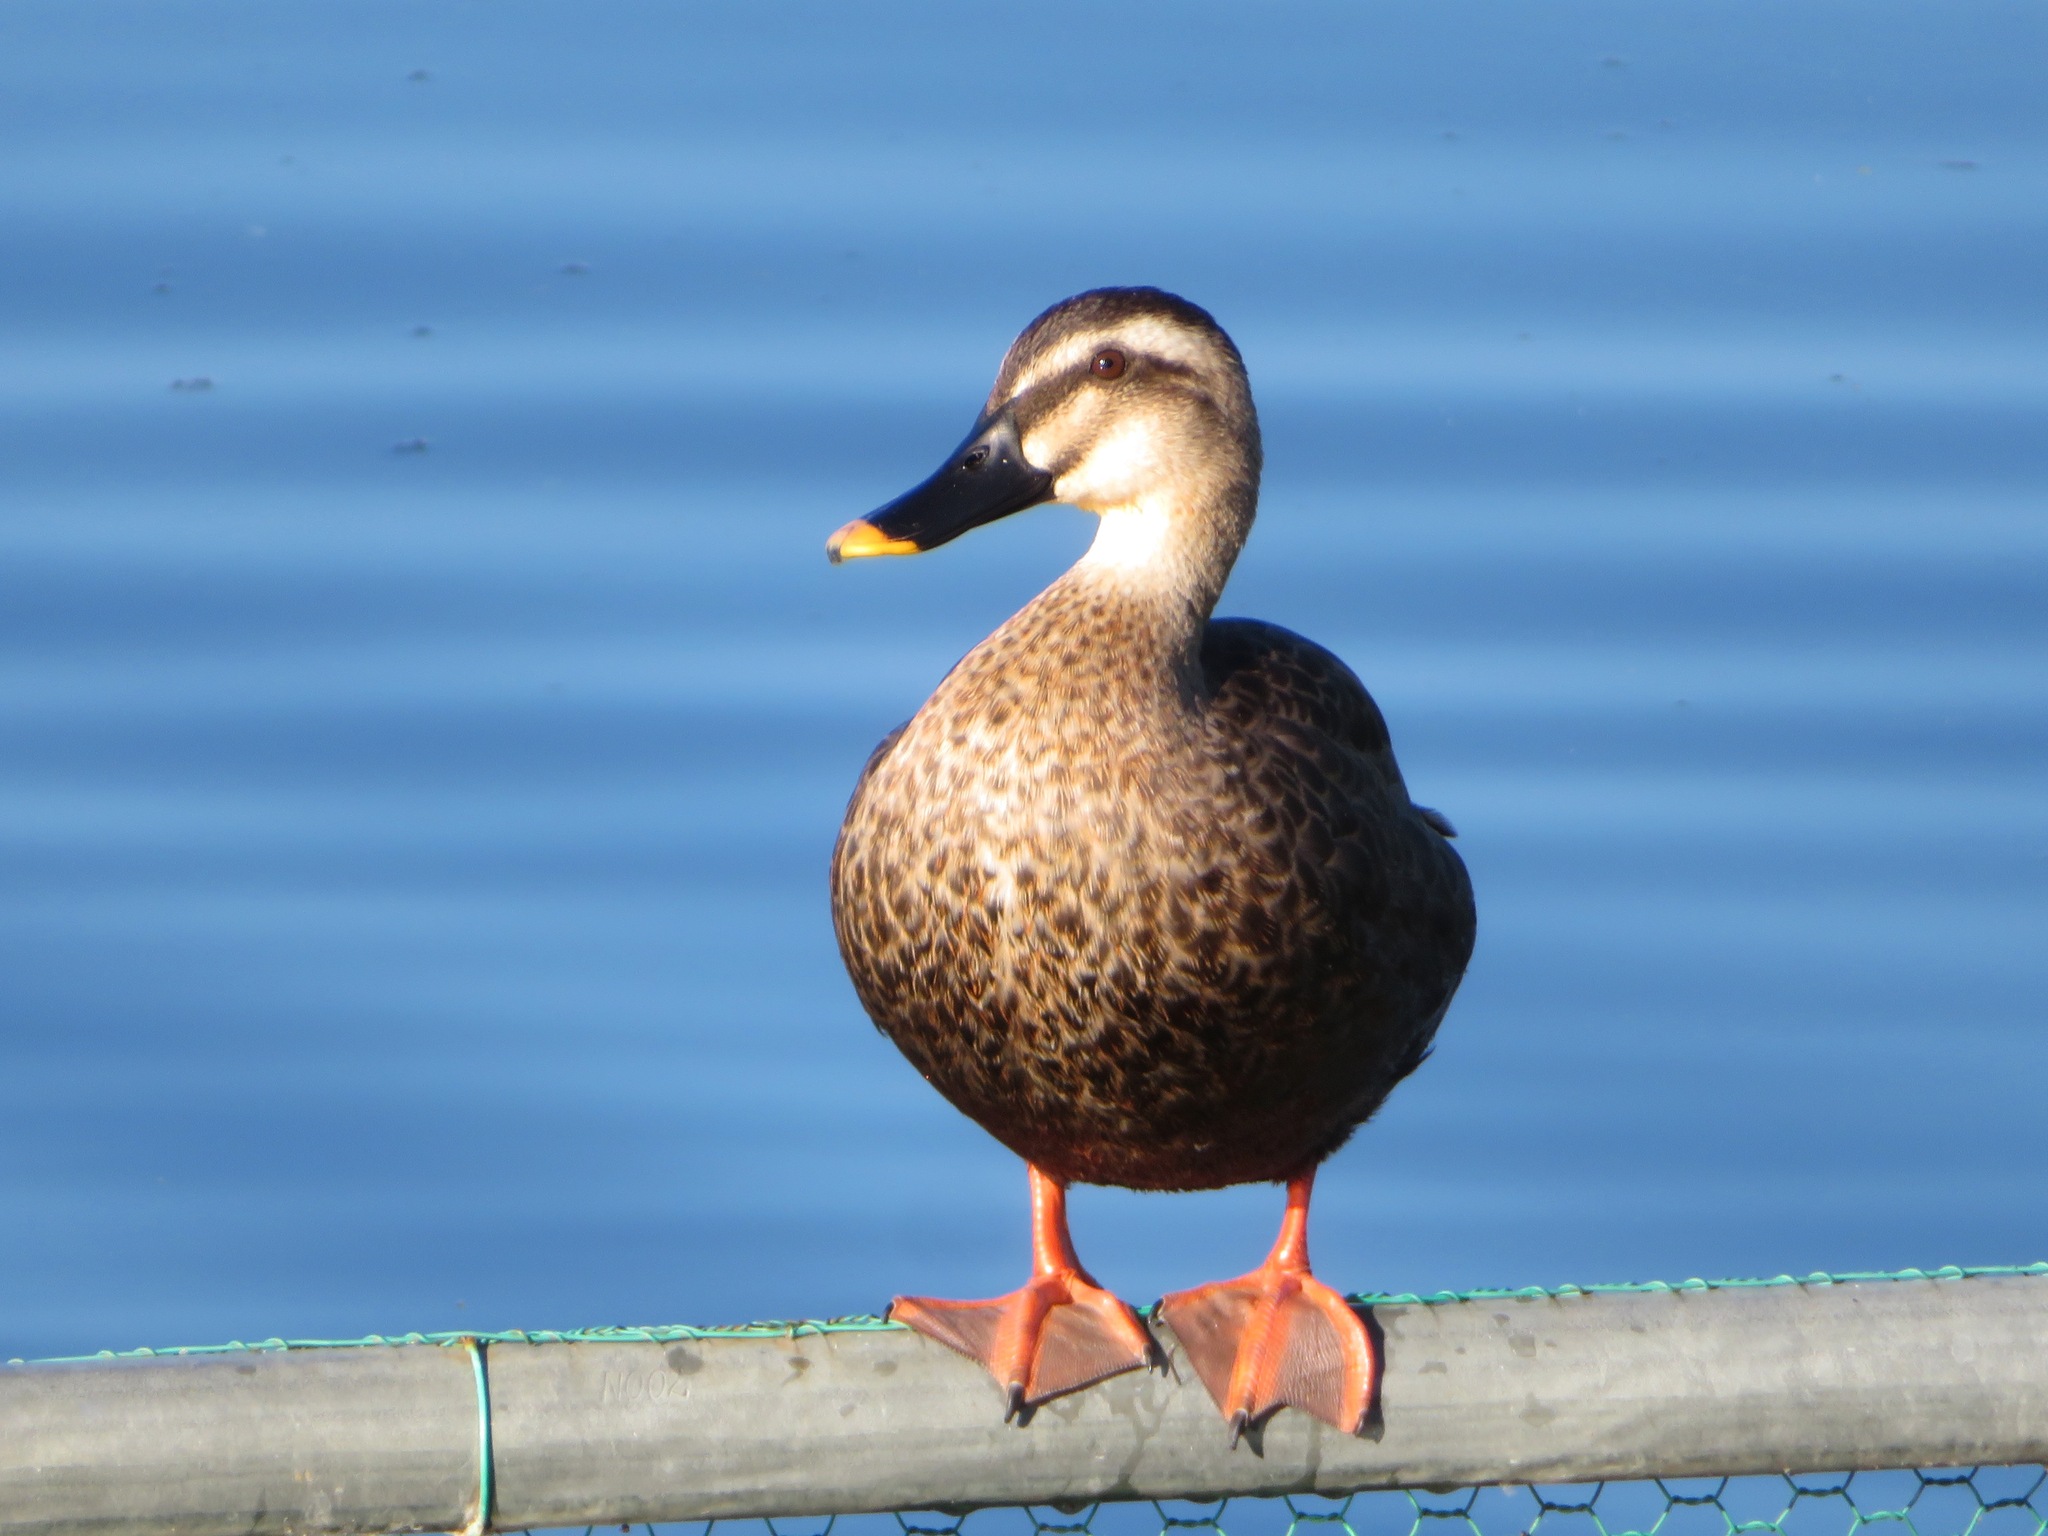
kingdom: Animalia
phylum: Chordata
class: Aves
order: Anseriformes
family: Anatidae
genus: Anas
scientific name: Anas zonorhyncha
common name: Eastern spot-billed duck
